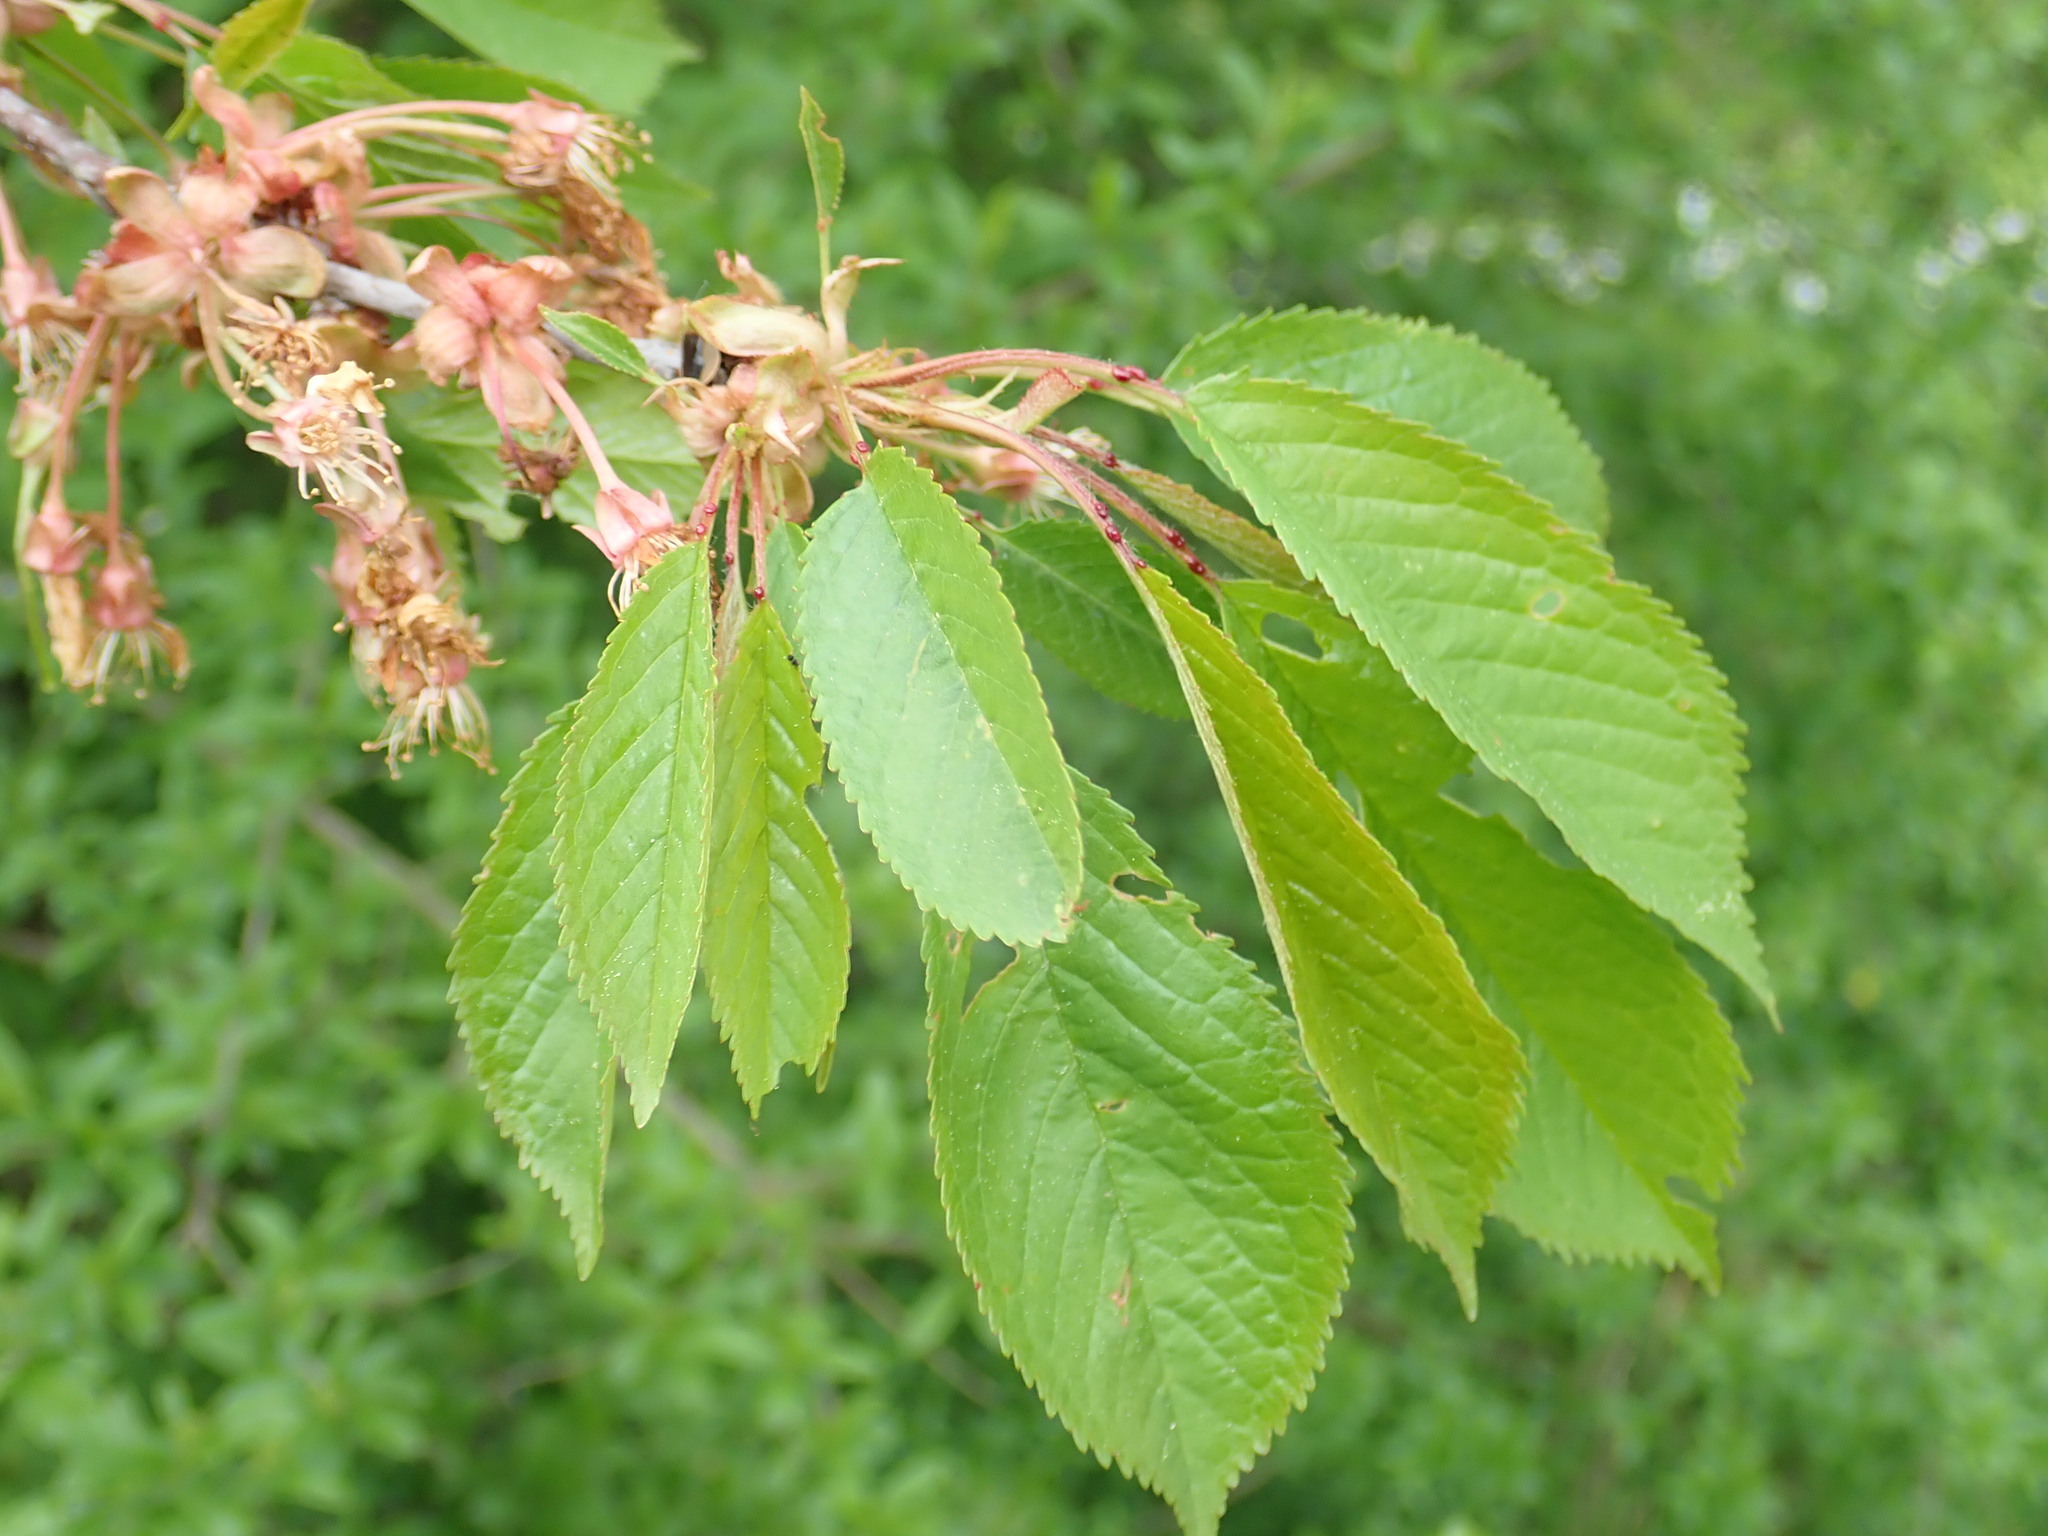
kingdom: Plantae
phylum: Tracheophyta
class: Magnoliopsida
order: Rosales
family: Rosaceae
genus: Prunus
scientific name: Prunus avium
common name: Sweet cherry
